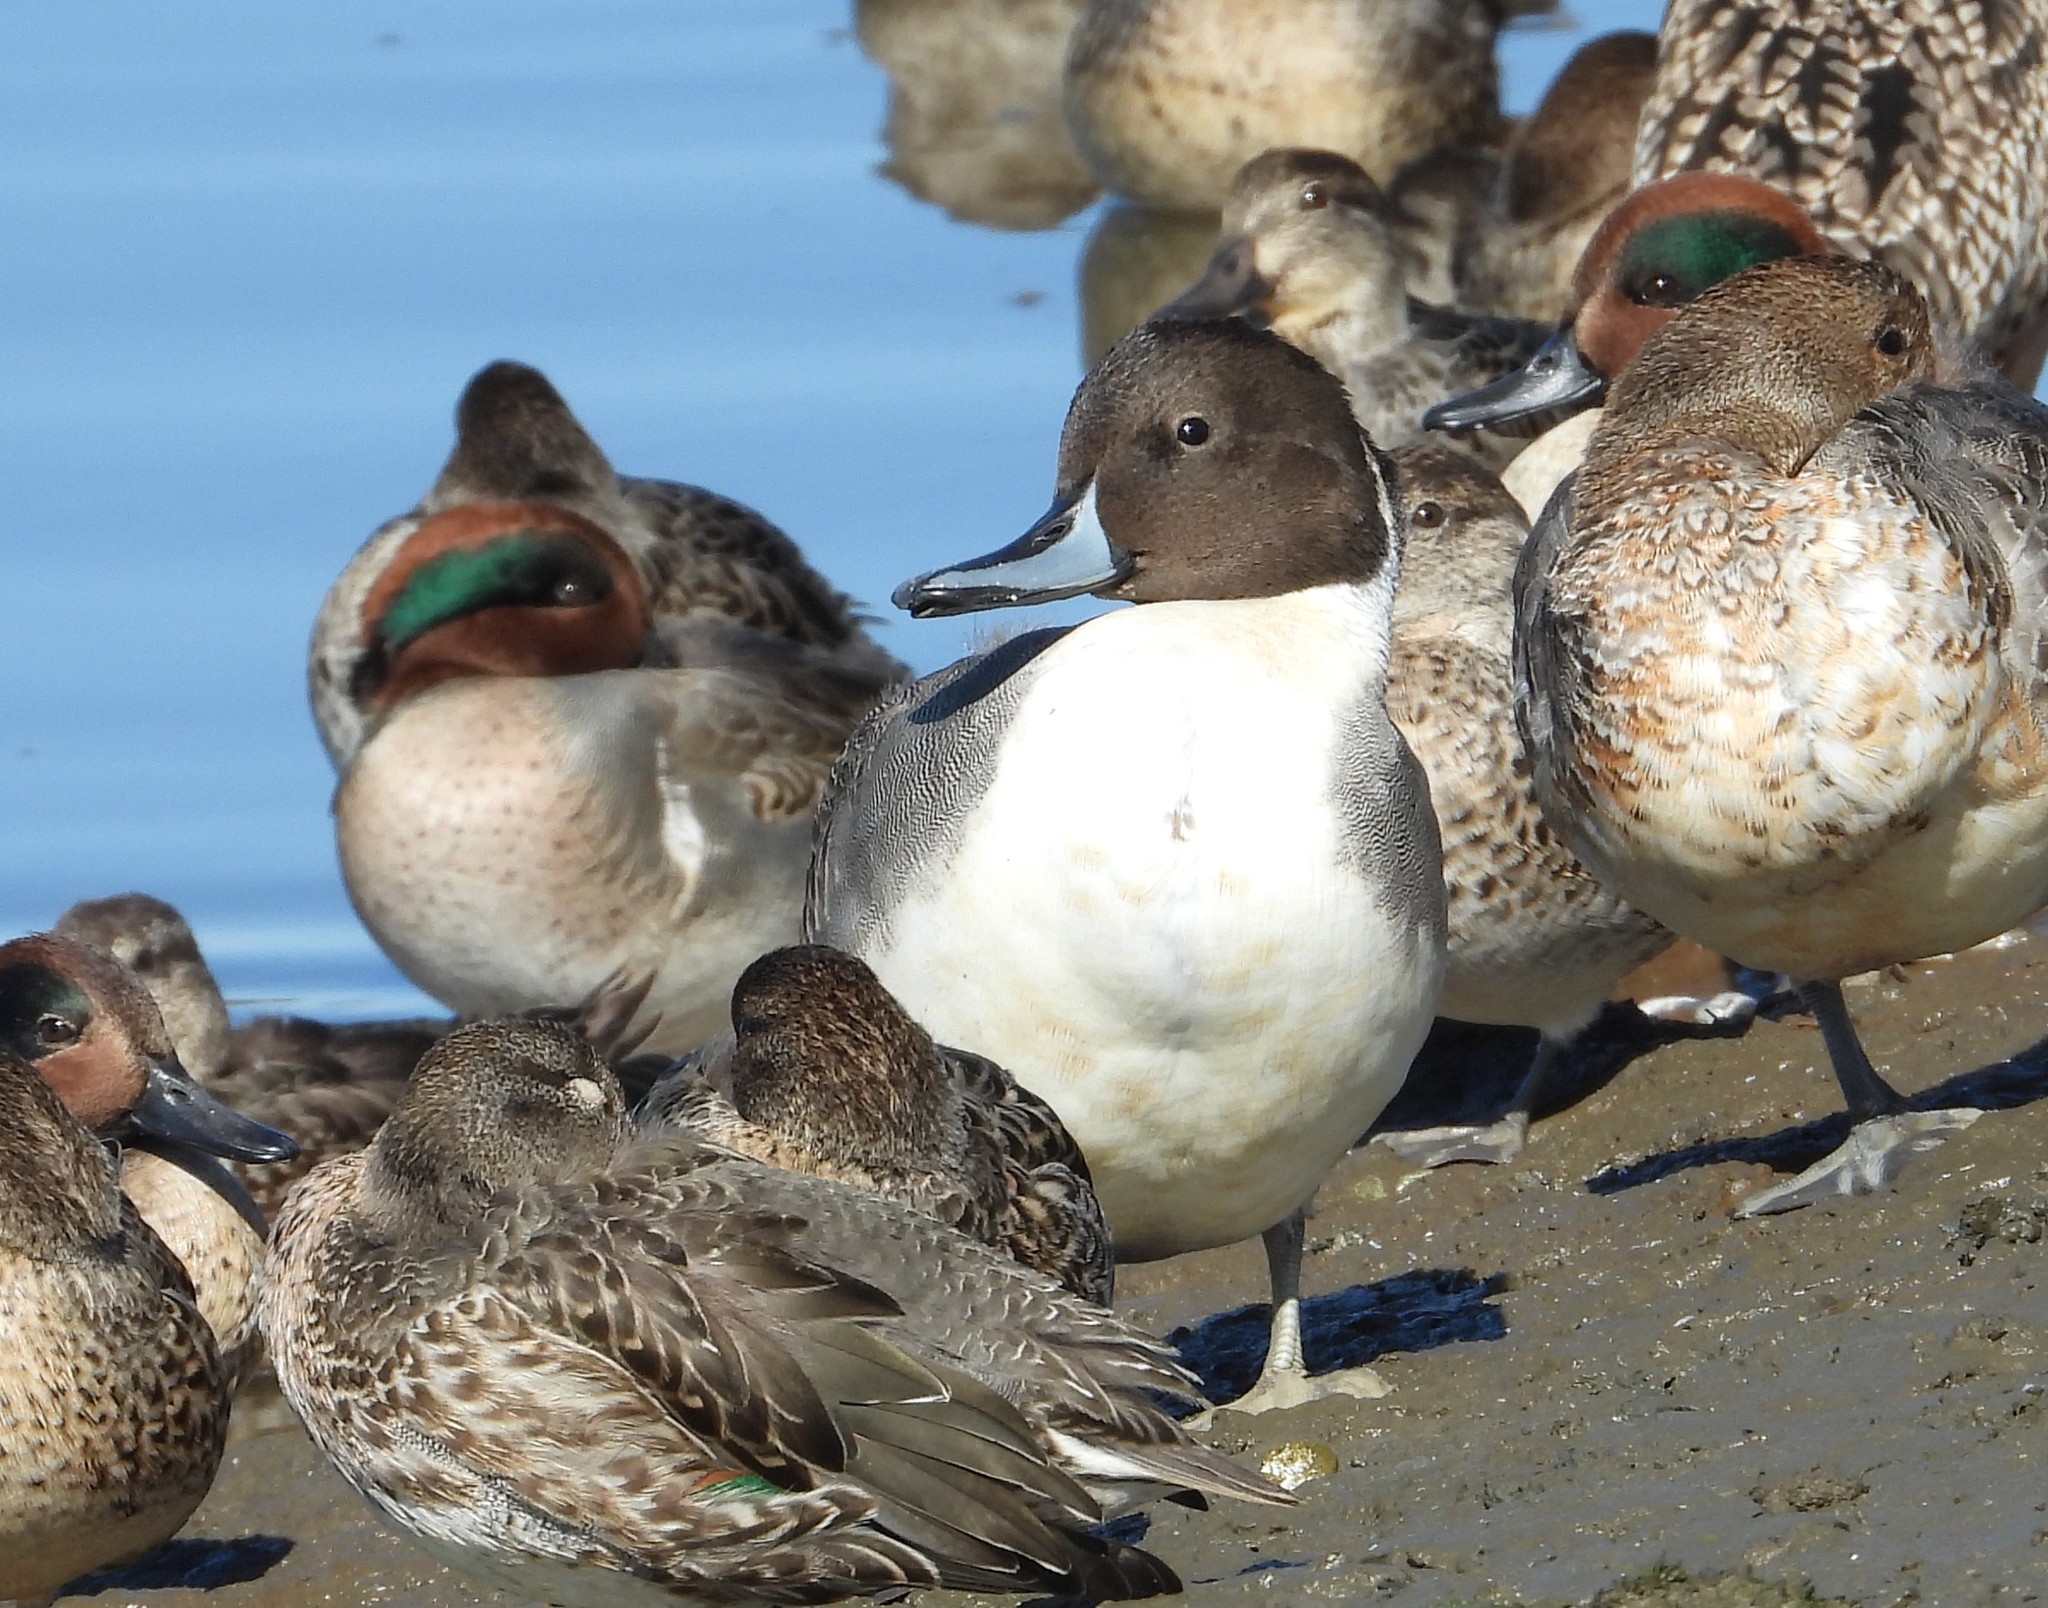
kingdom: Animalia
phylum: Chordata
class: Aves
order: Anseriformes
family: Anatidae
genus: Anas
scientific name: Anas acuta
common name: Northern pintail
